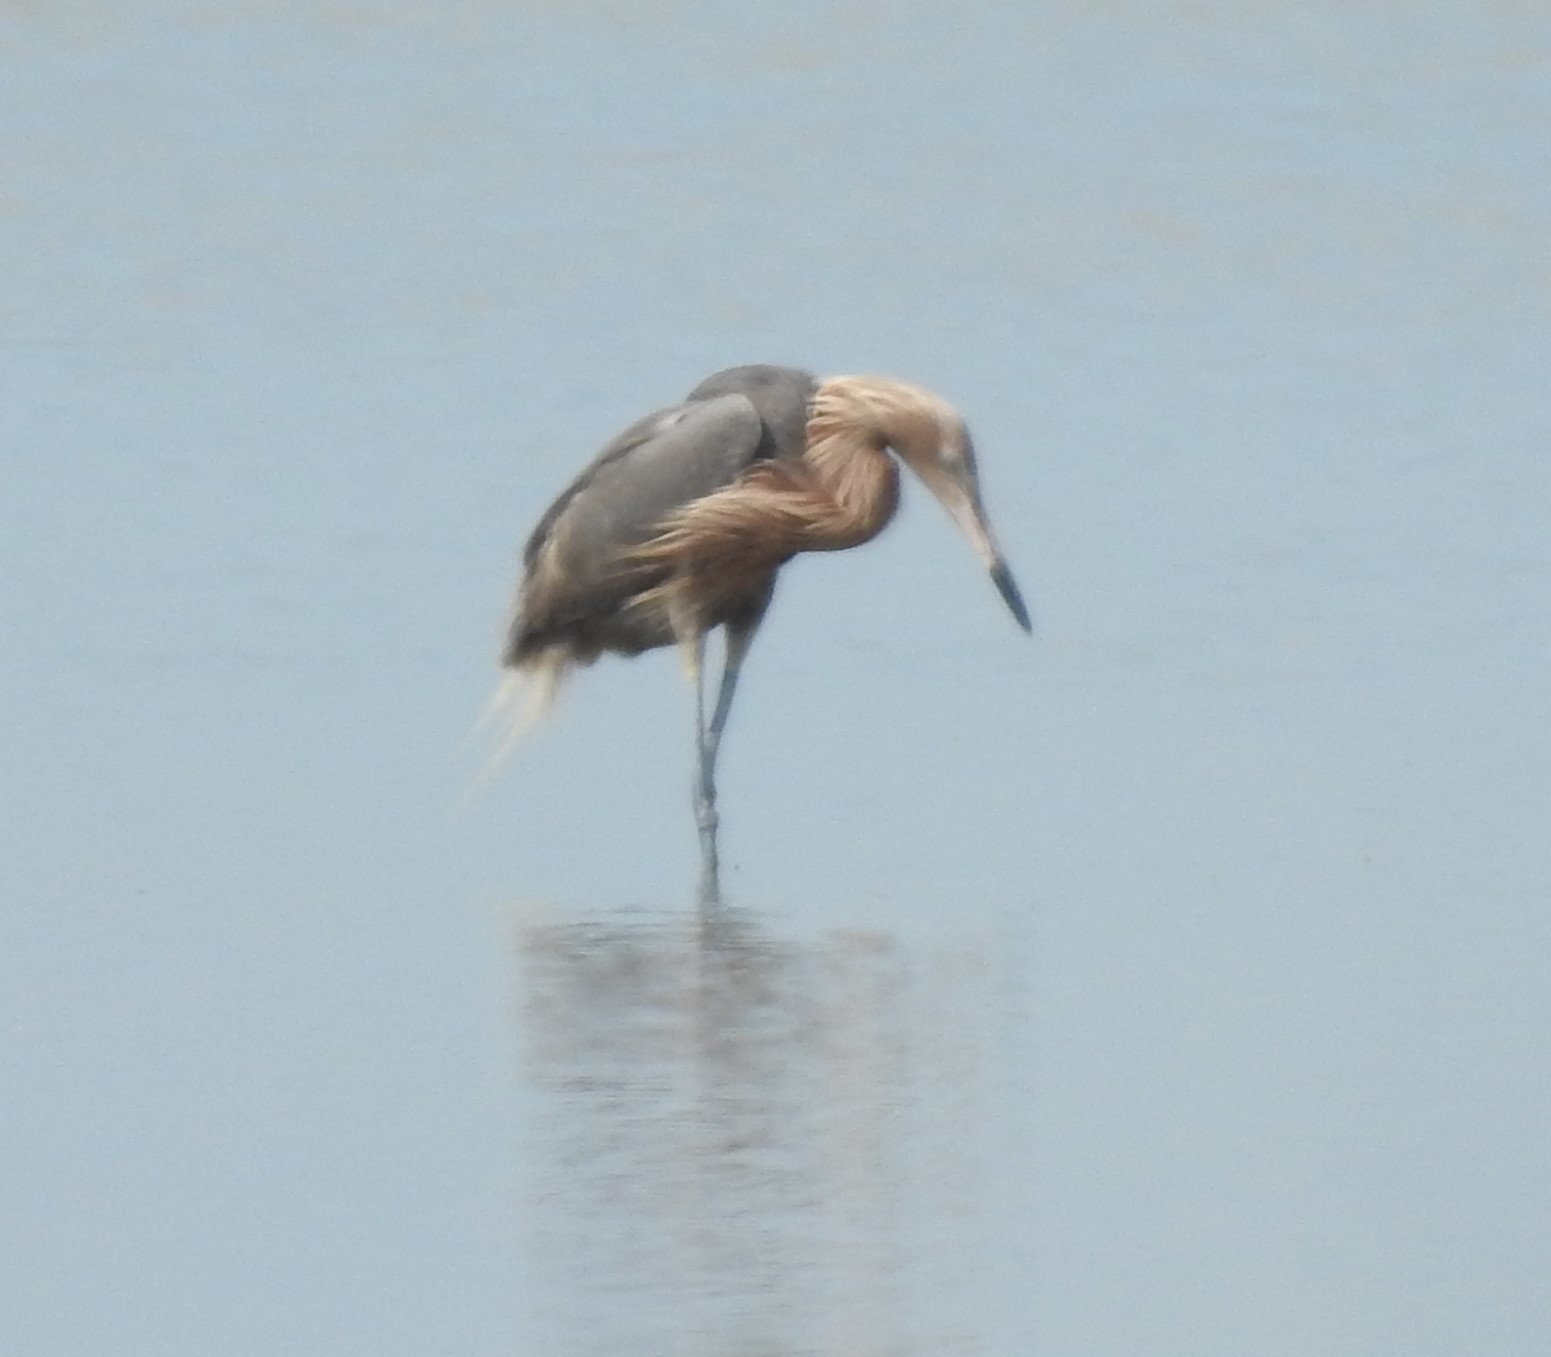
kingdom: Animalia
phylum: Chordata
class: Aves
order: Pelecaniformes
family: Ardeidae
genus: Egretta
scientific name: Egretta rufescens
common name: Reddish egret
